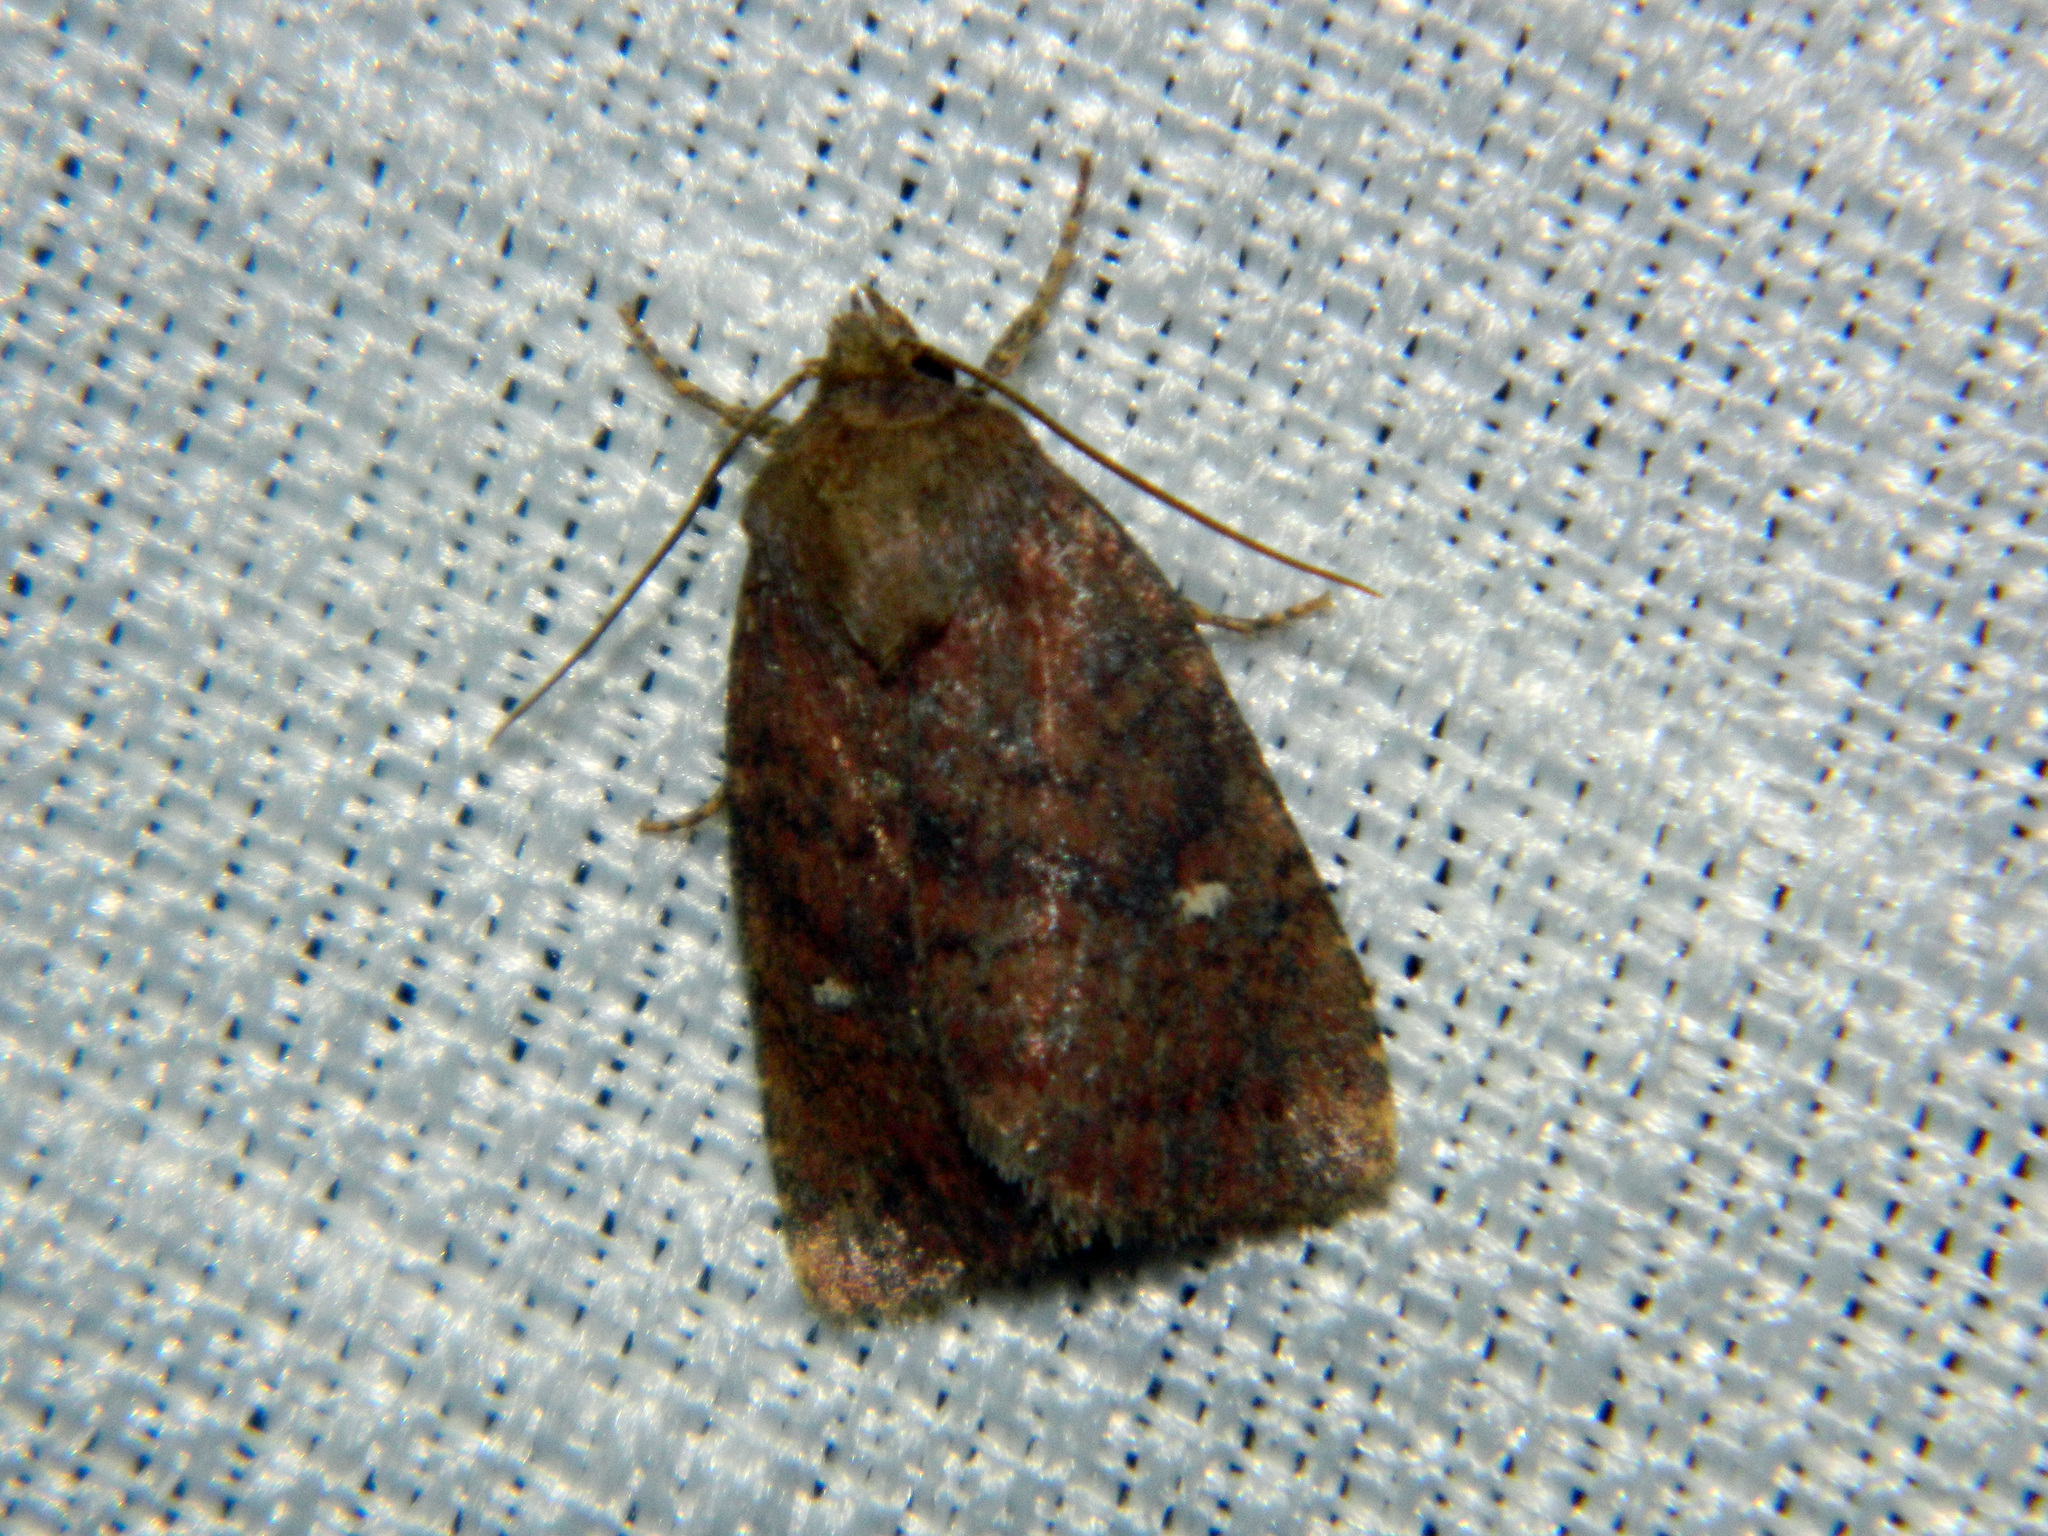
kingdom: Animalia
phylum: Arthropoda
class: Insecta
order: Lepidoptera
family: Noctuidae
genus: Pseudorthodes
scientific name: Pseudorthodes vecors
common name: Small brown quaker
